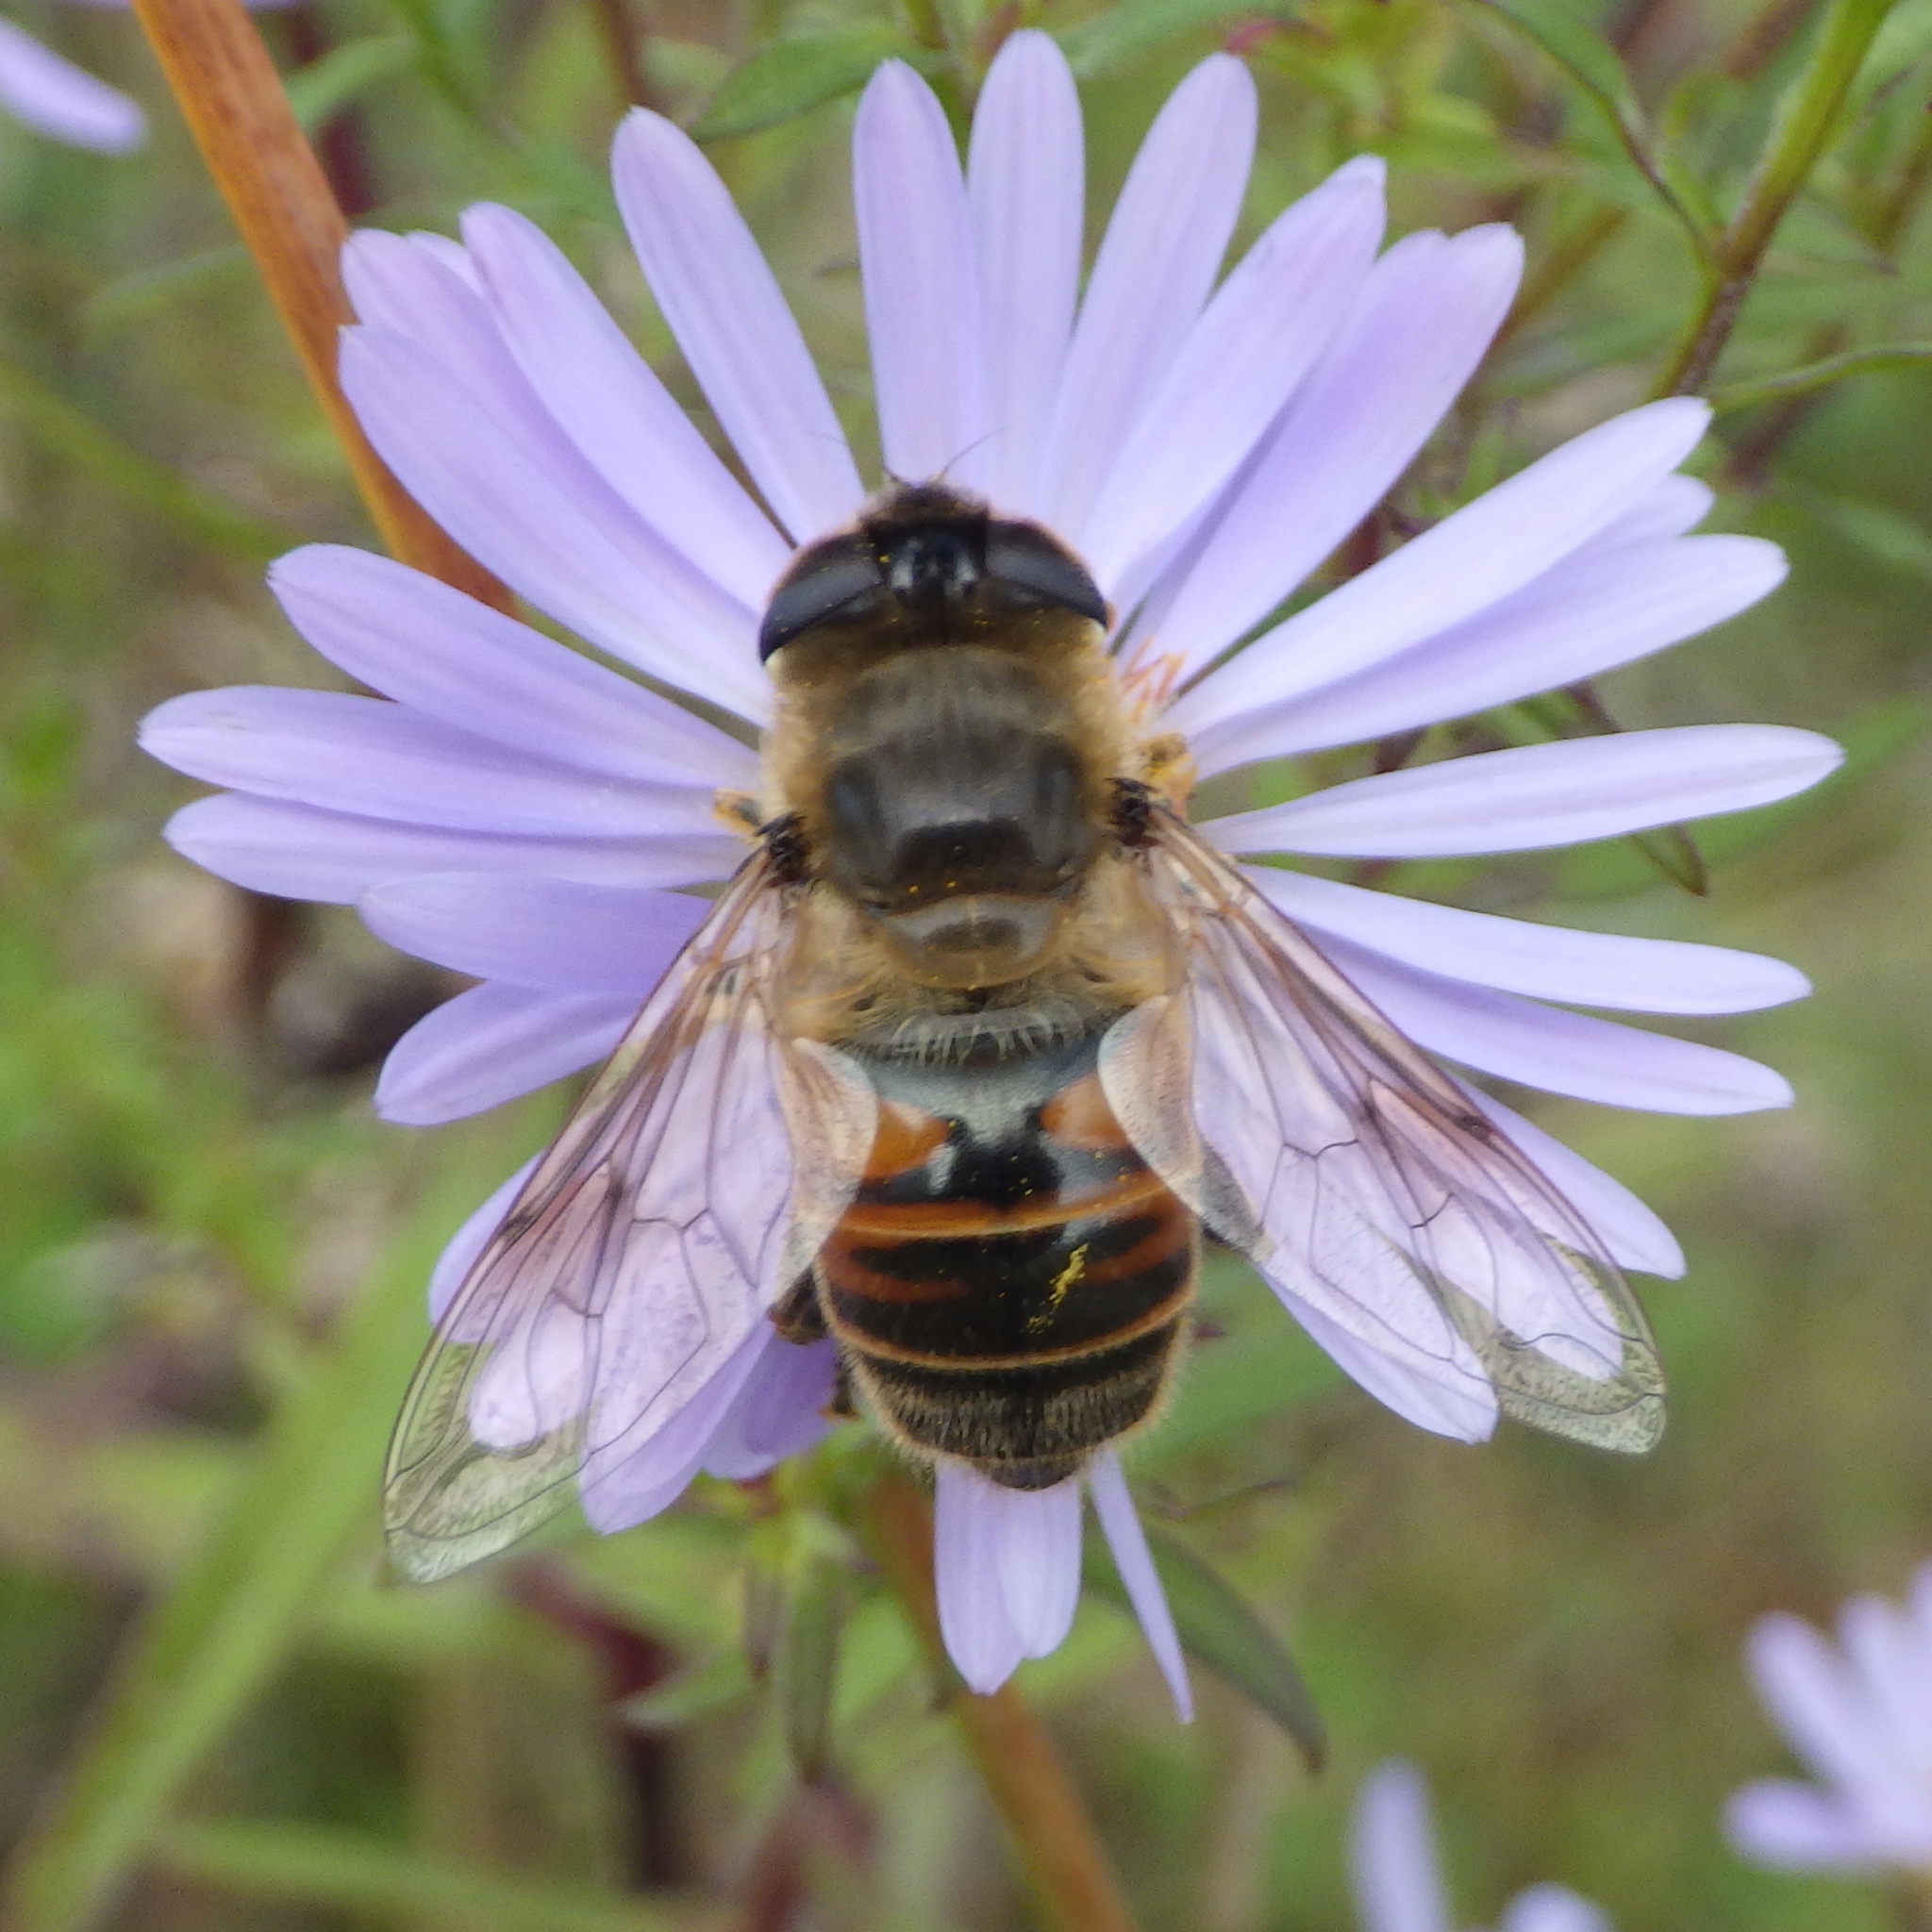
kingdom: Animalia
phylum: Arthropoda
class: Insecta
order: Diptera
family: Syrphidae
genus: Eristalis
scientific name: Eristalis tenax
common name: Drone fly
